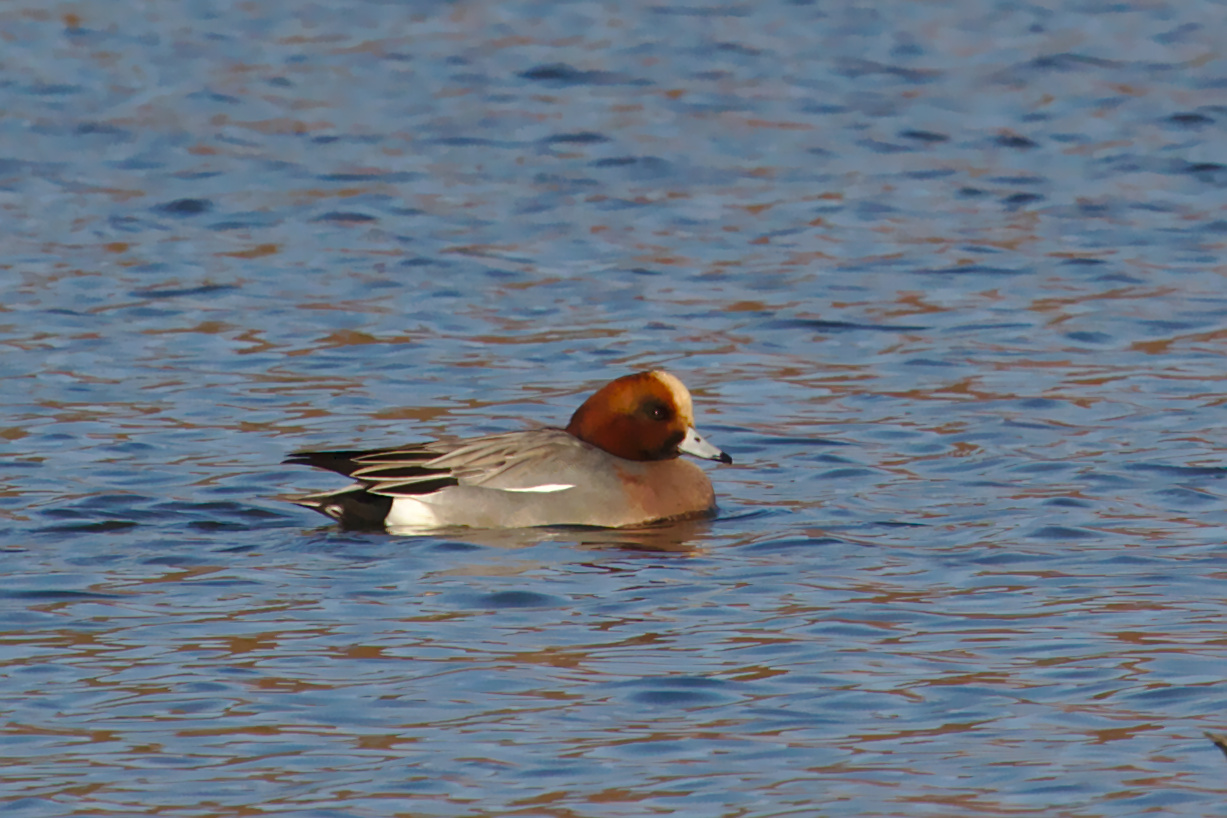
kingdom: Animalia
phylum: Chordata
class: Aves
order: Anseriformes
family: Anatidae
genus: Mareca
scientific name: Mareca penelope
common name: Eurasian wigeon
